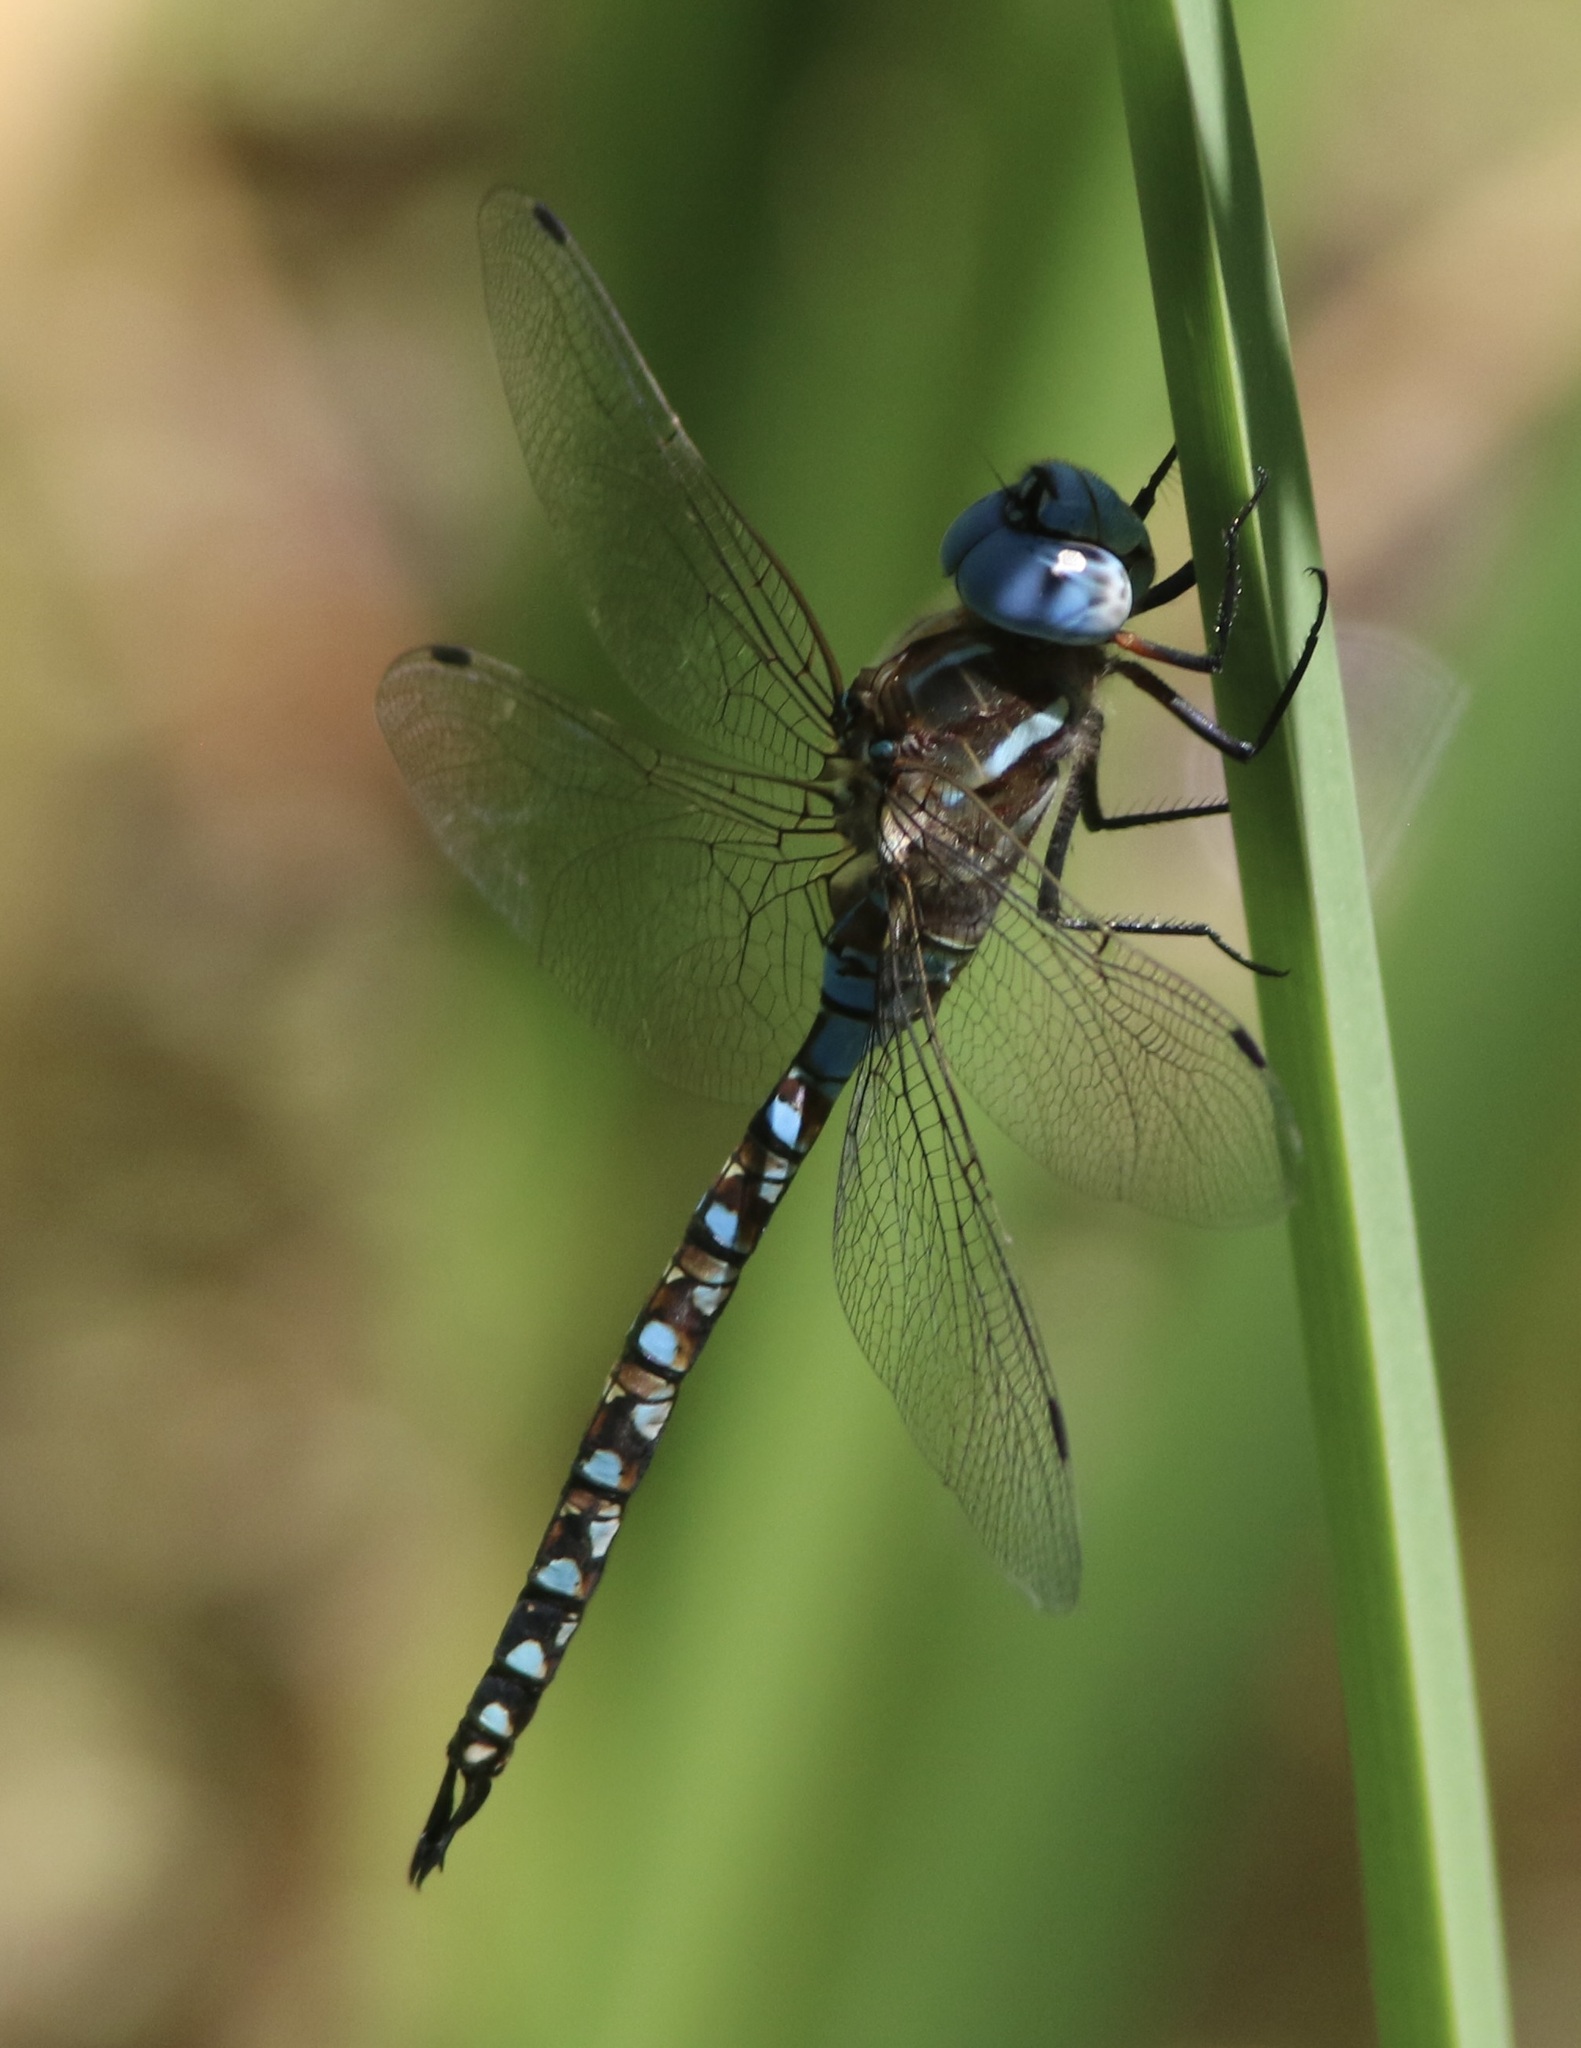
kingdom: Animalia
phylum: Arthropoda
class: Insecta
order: Odonata
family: Aeshnidae
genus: Rhionaeschna
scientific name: Rhionaeschna multicolor
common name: Blue-eyed darner
